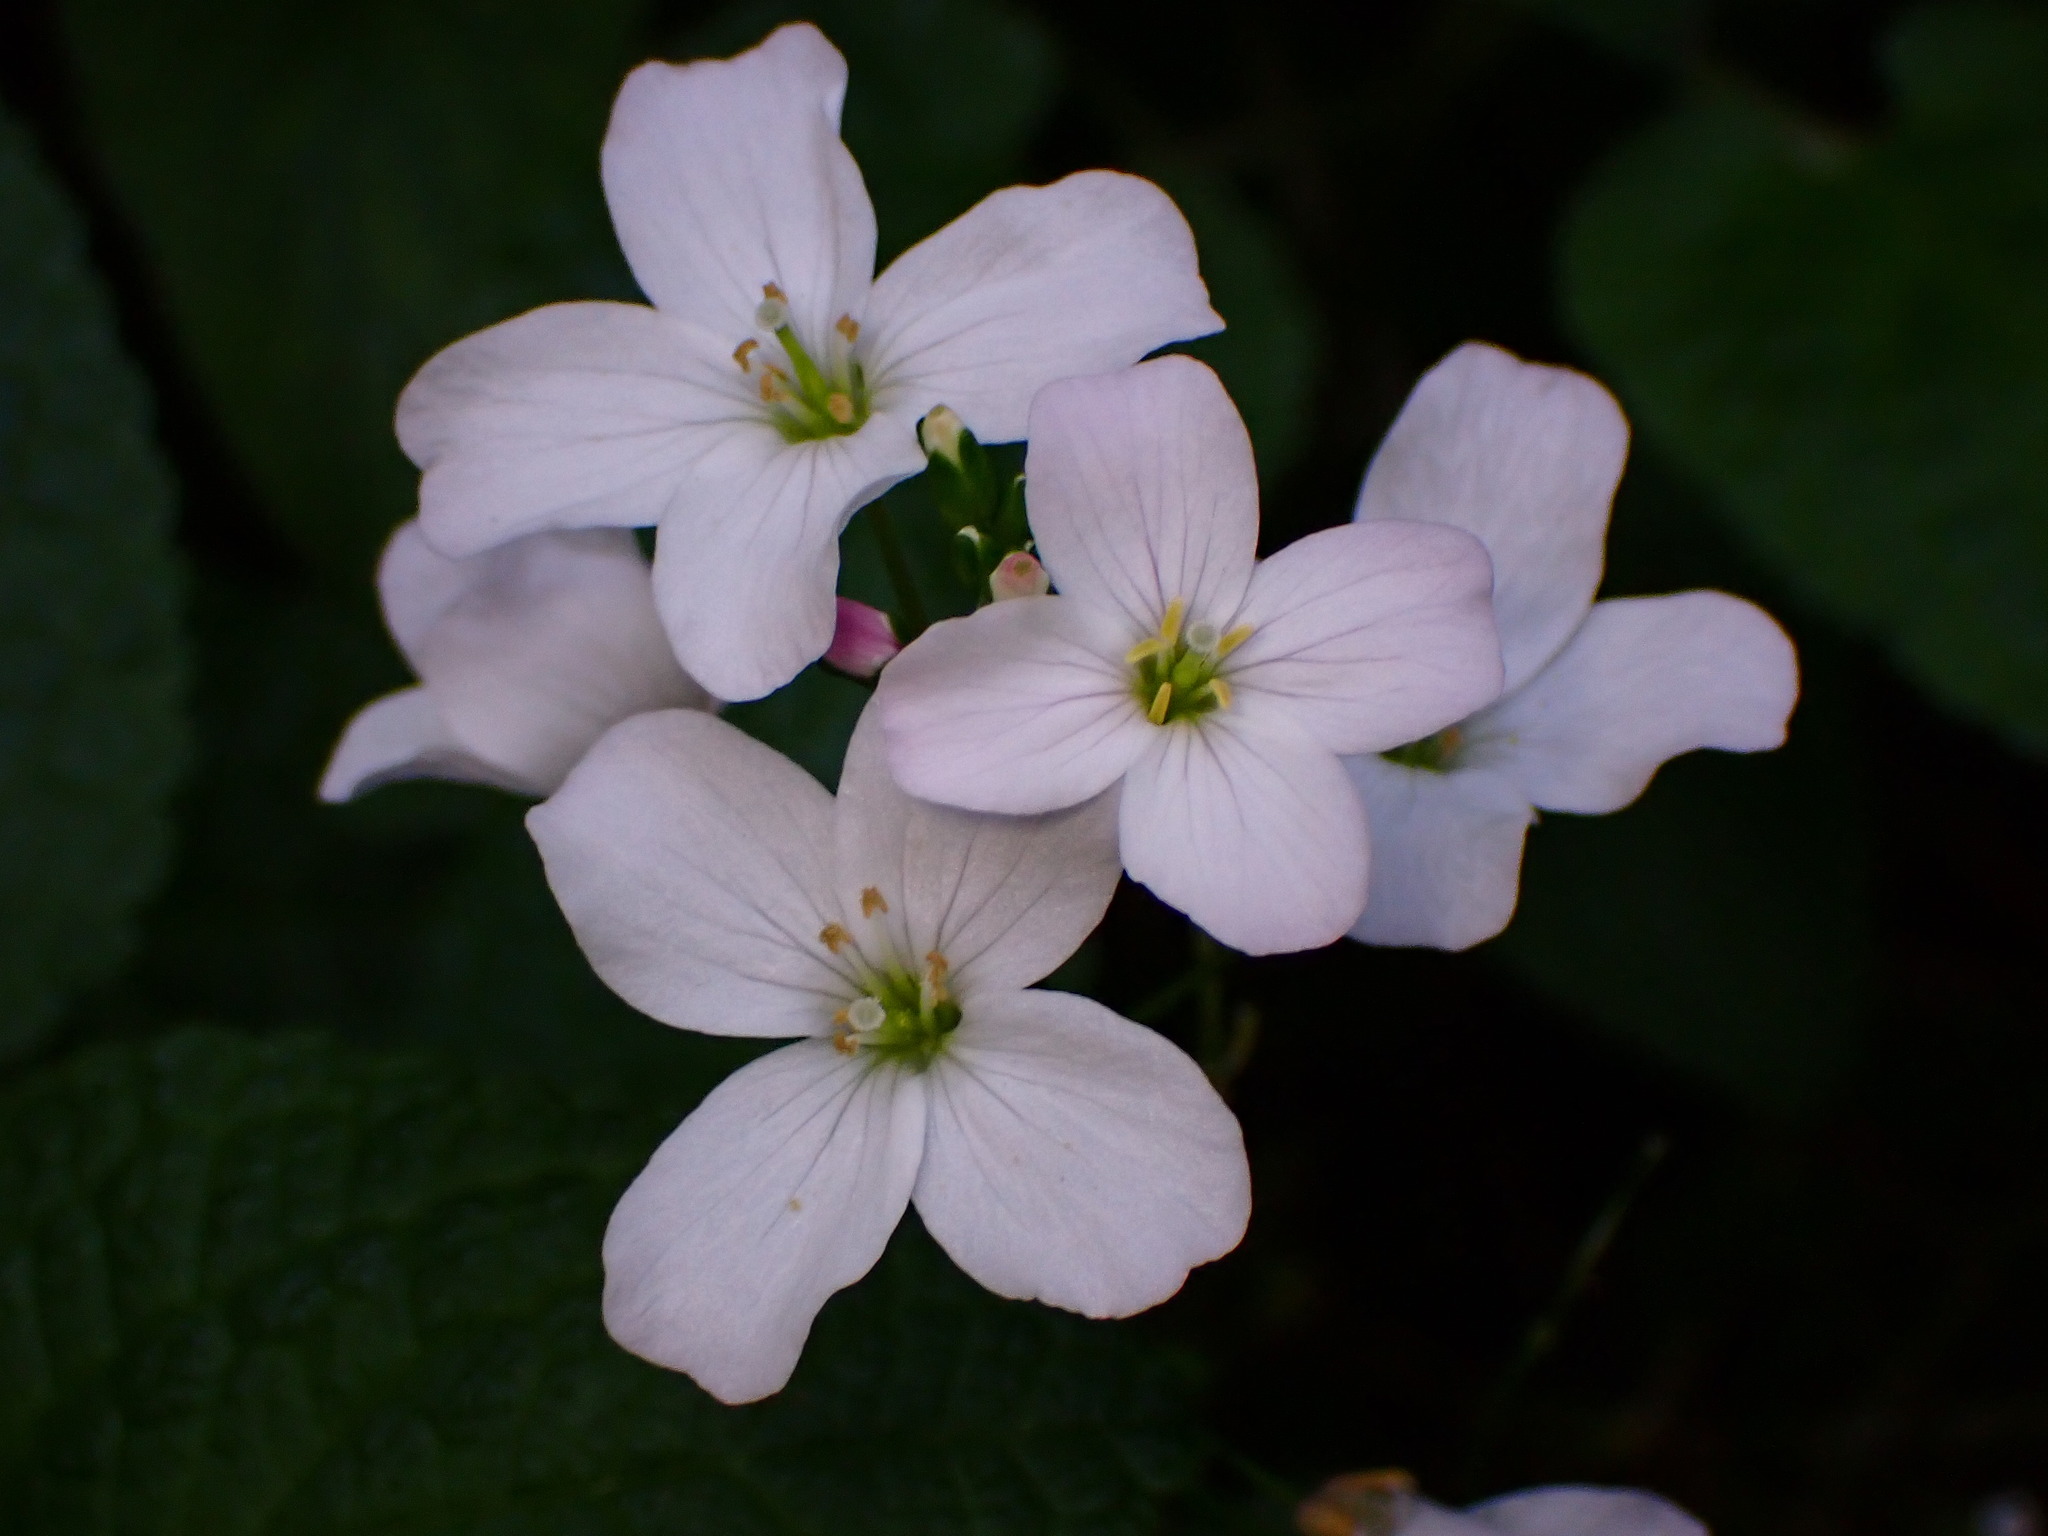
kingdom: Plantae
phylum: Tracheophyta
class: Magnoliopsida
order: Brassicales
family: Brassicaceae
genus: Cardamine
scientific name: Cardamine californica
